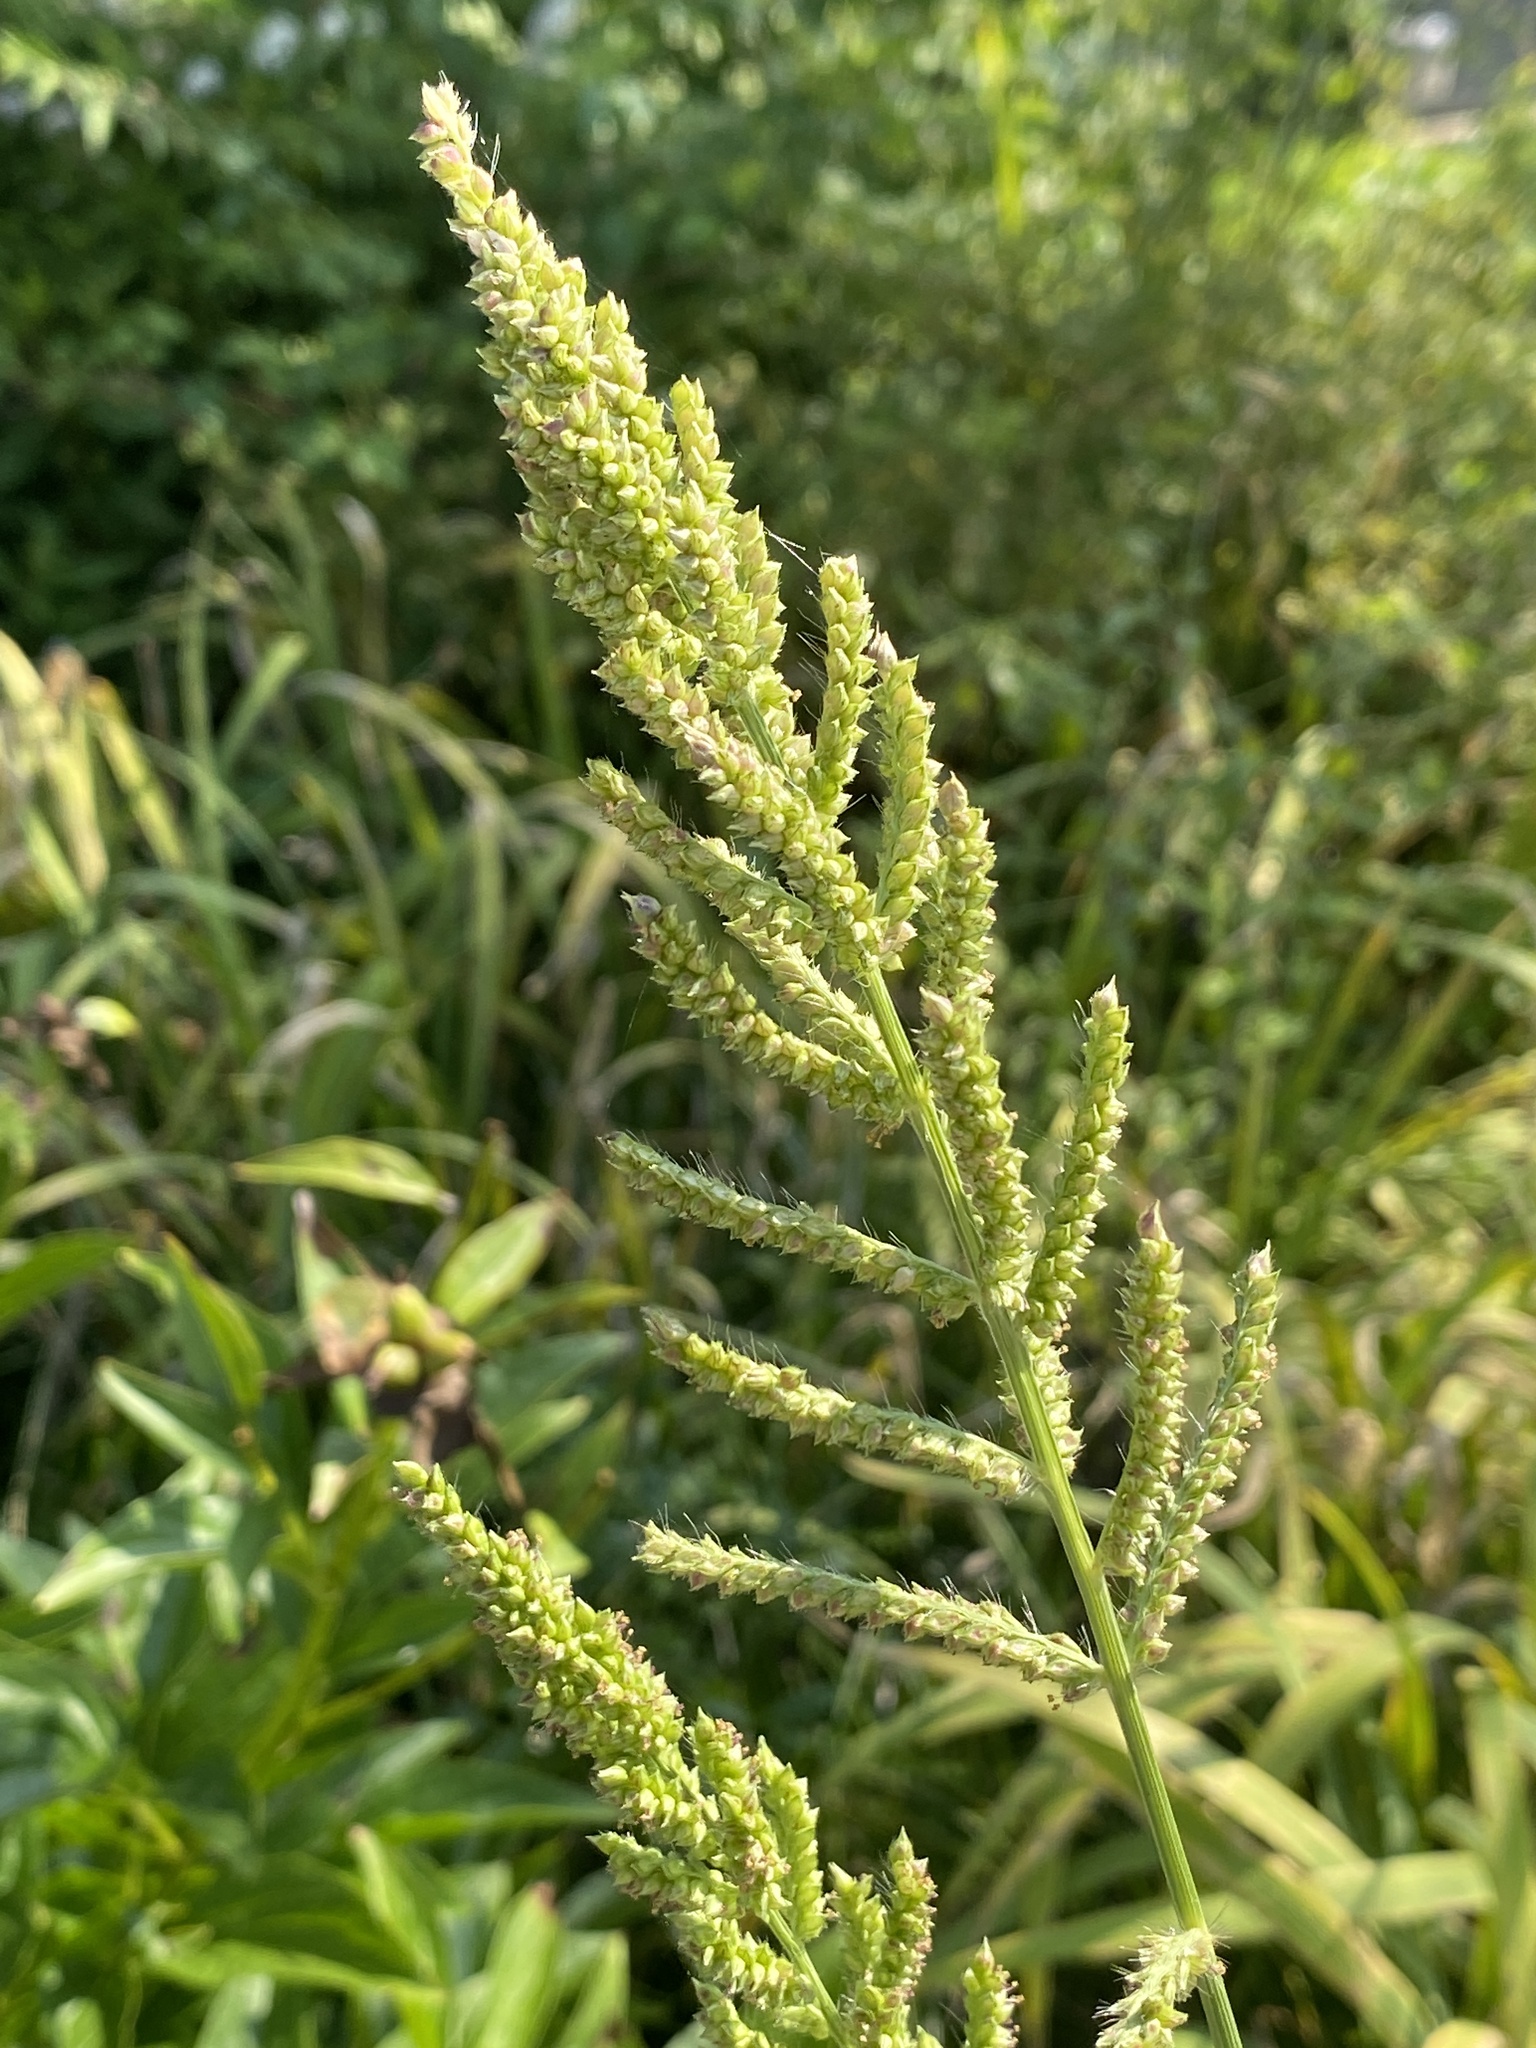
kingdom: Plantae
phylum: Tracheophyta
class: Liliopsida
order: Poales
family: Poaceae
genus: Echinochloa
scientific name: Echinochloa crus-galli
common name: Cockspur
